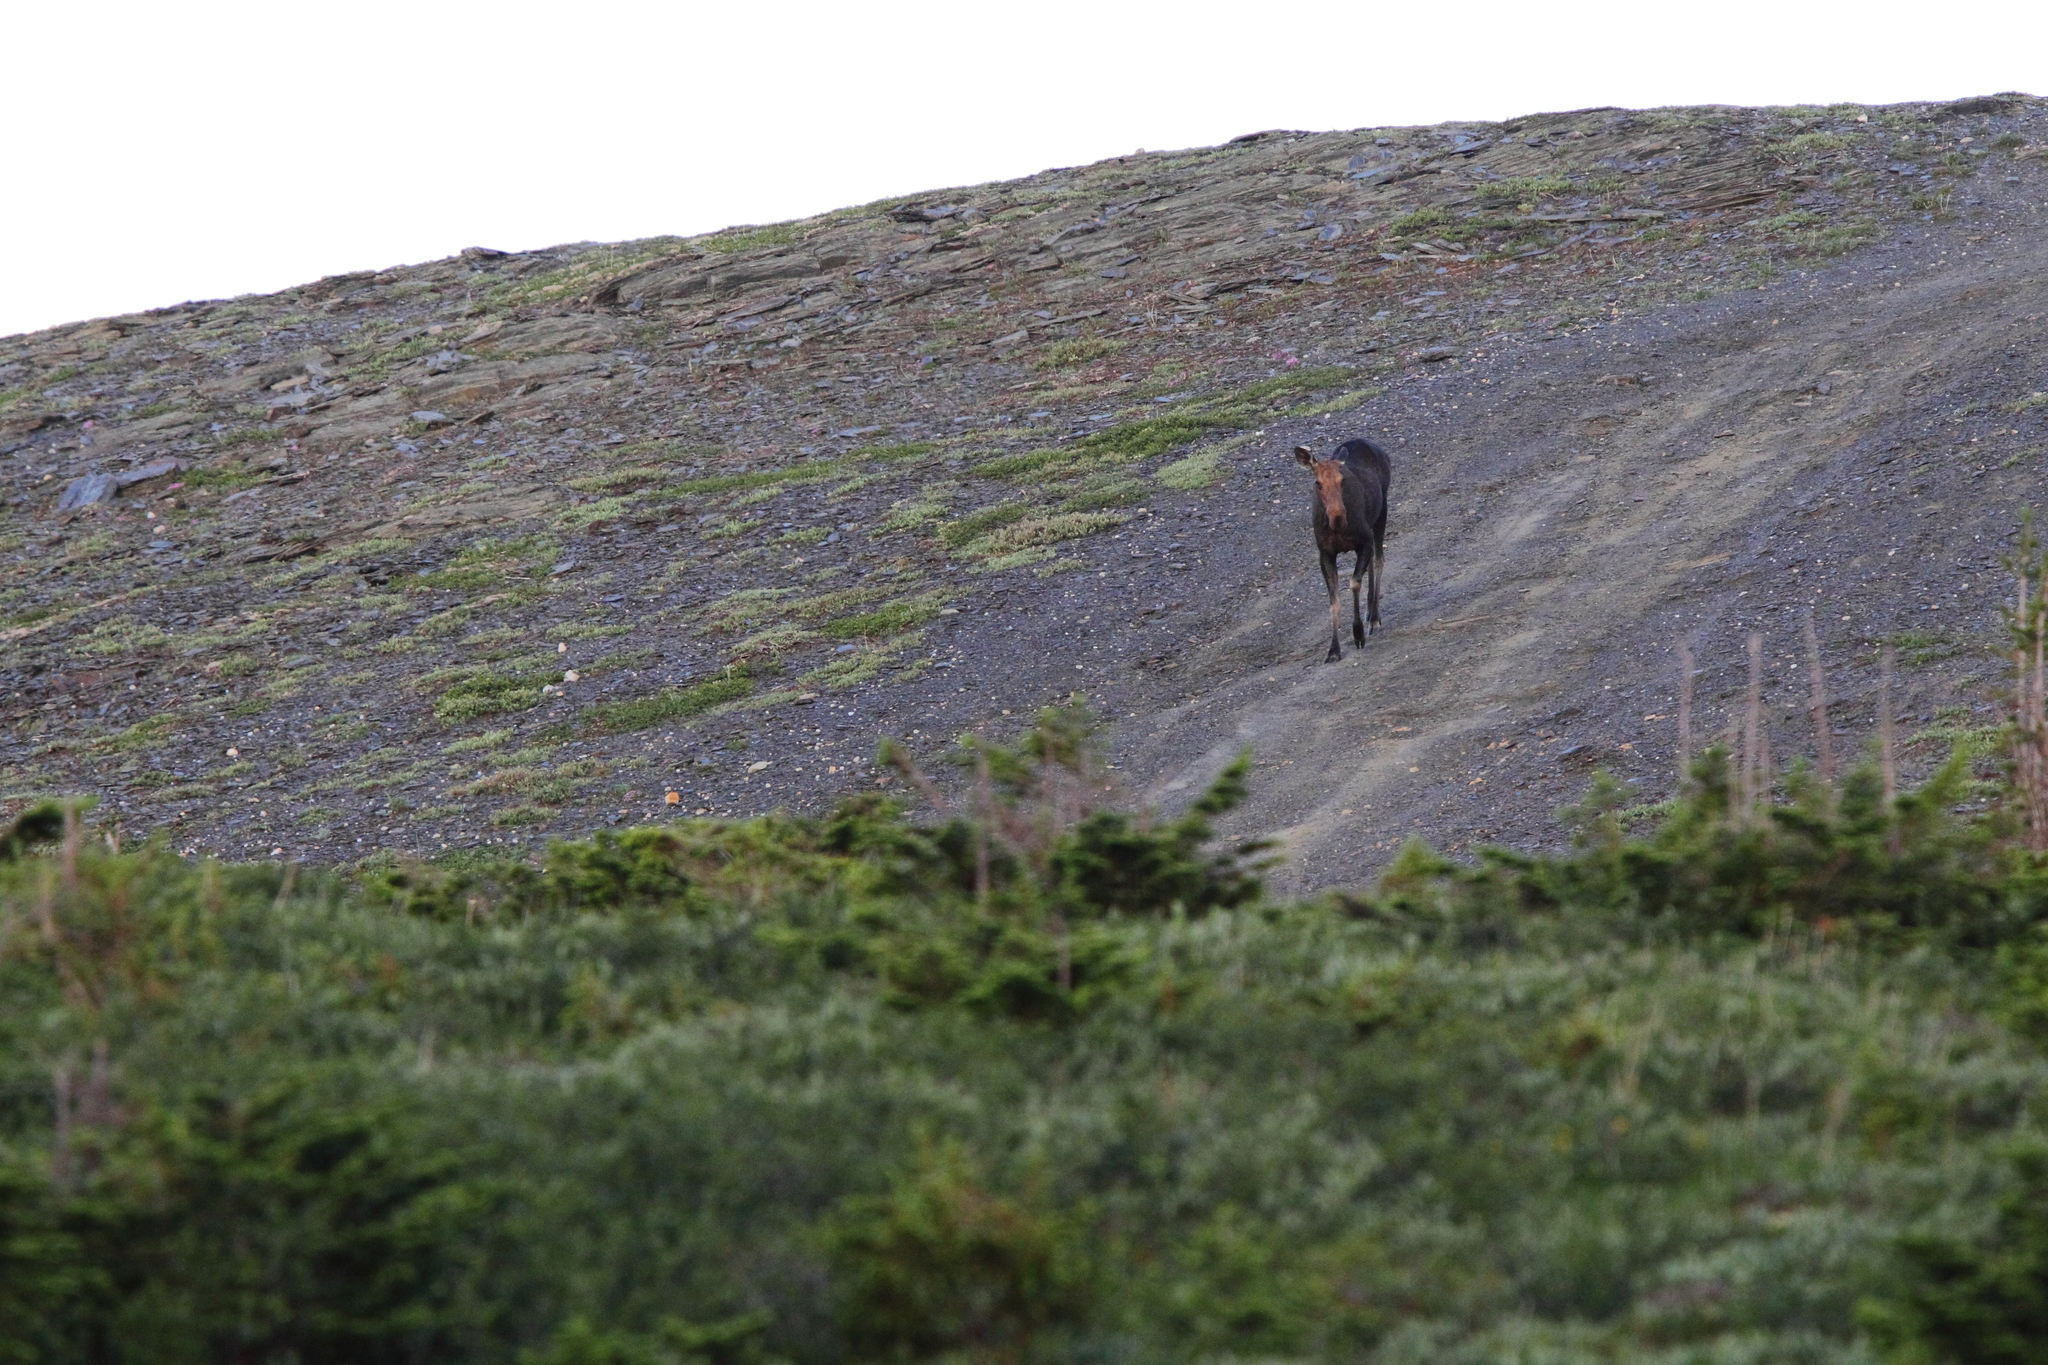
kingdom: Animalia
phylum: Chordata
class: Mammalia
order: Artiodactyla
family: Cervidae
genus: Alces
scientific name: Alces alces
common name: Moose
